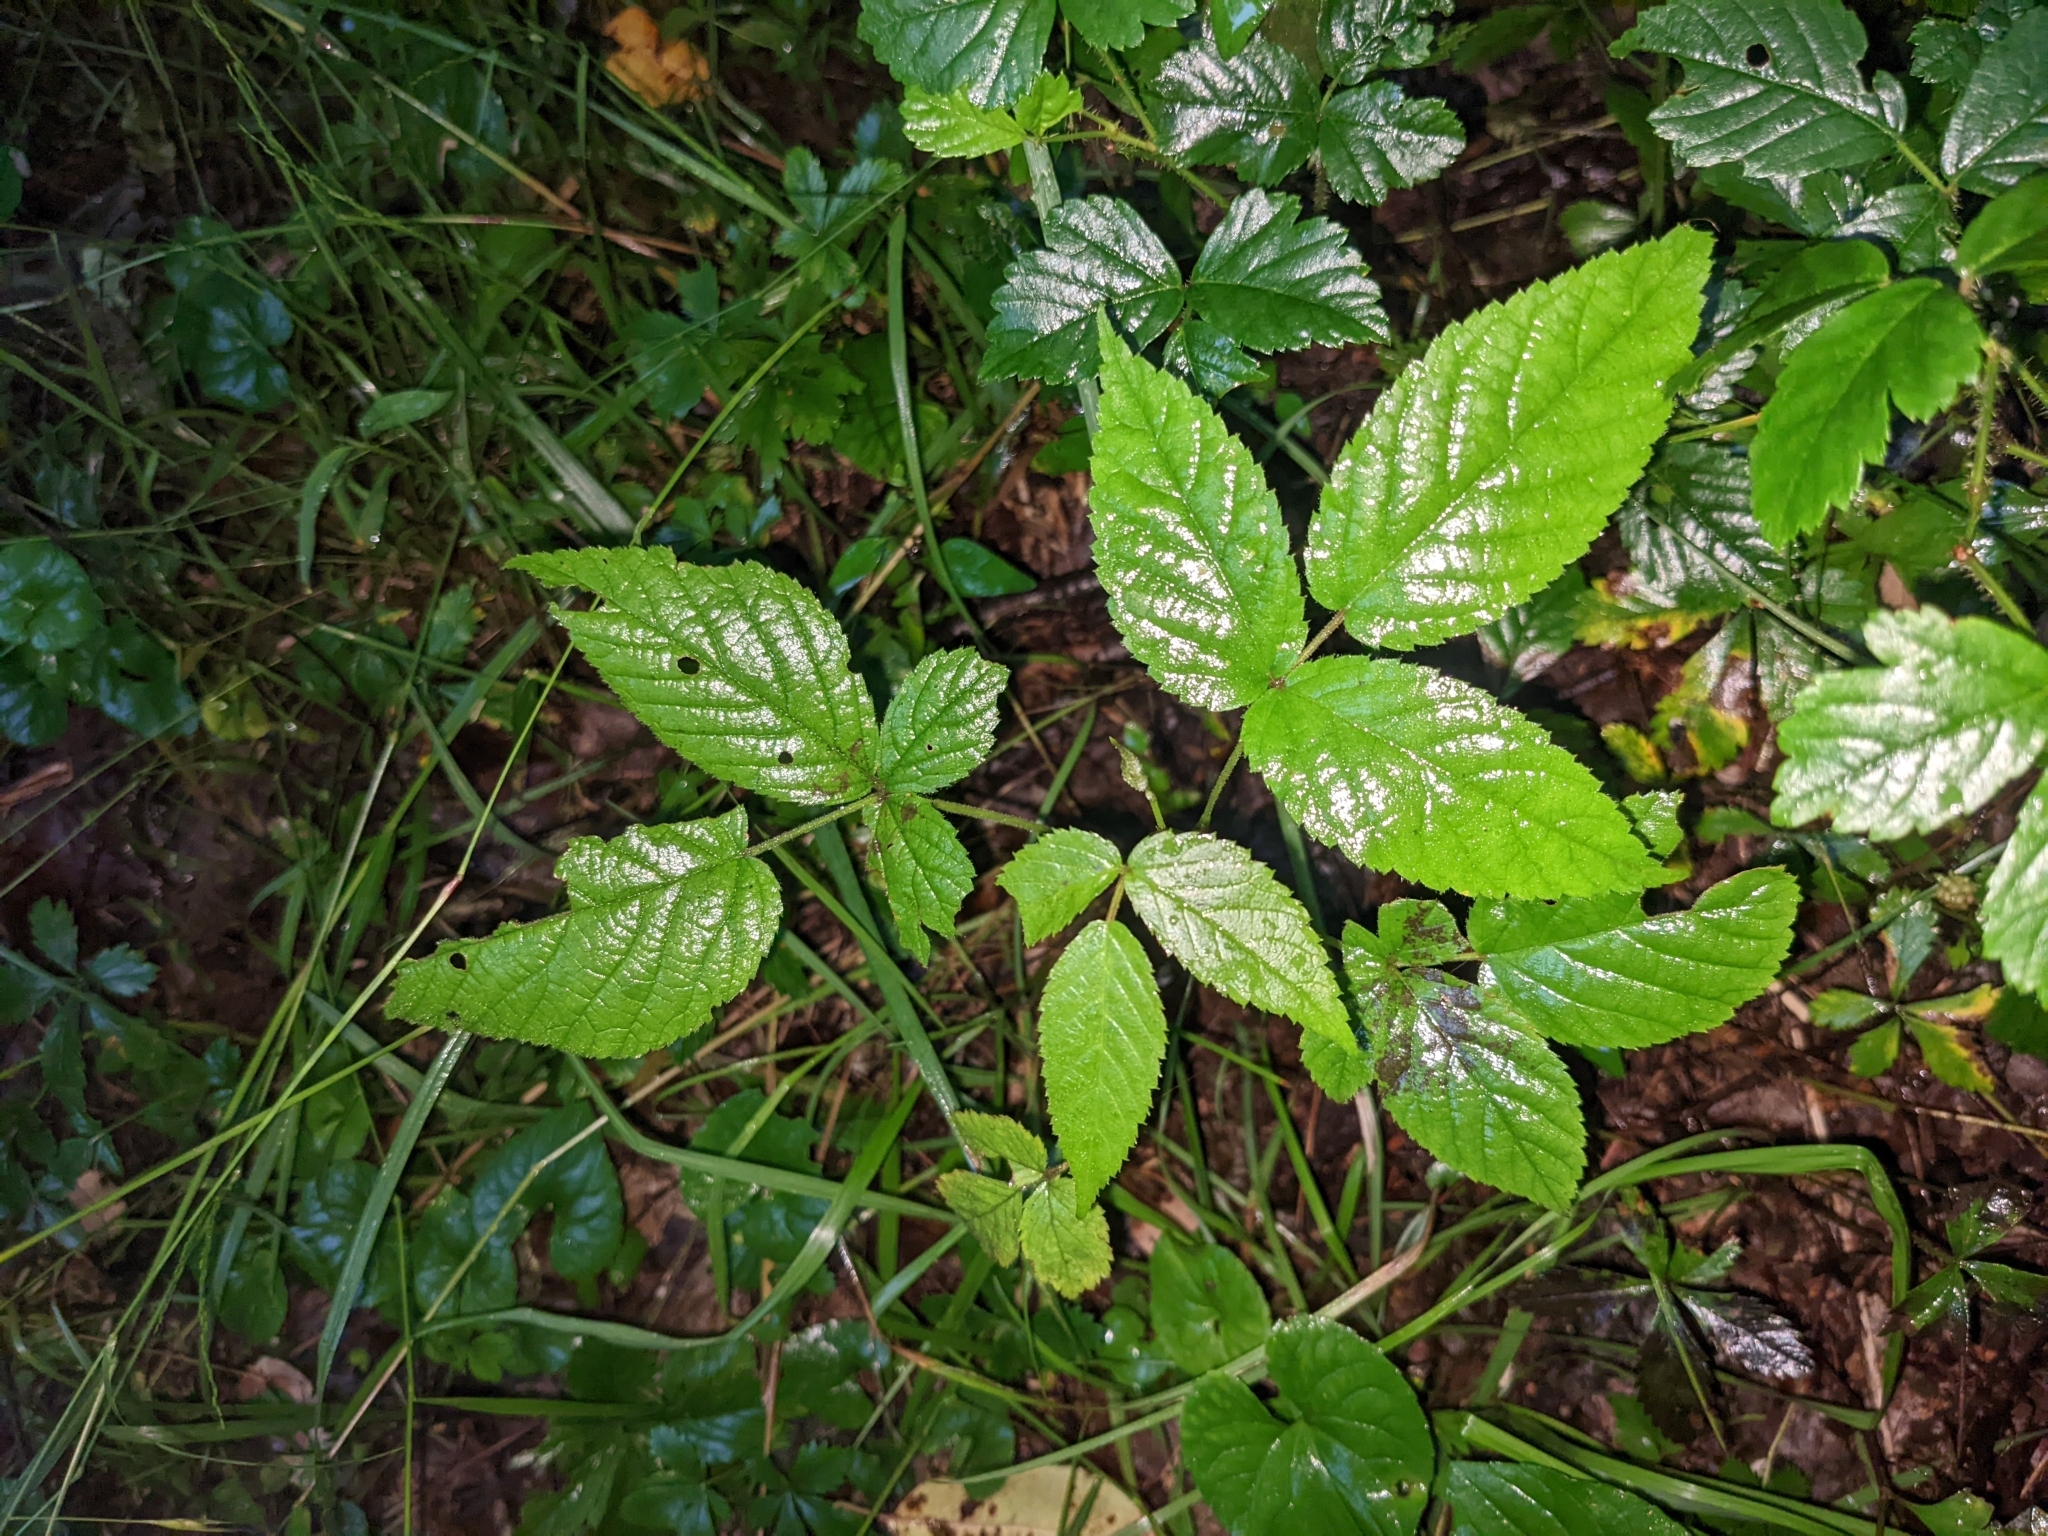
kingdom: Plantae
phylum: Tracheophyta
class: Magnoliopsida
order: Rosales
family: Rosaceae
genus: Rubus
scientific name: Rubus idaeus
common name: Raspberry
